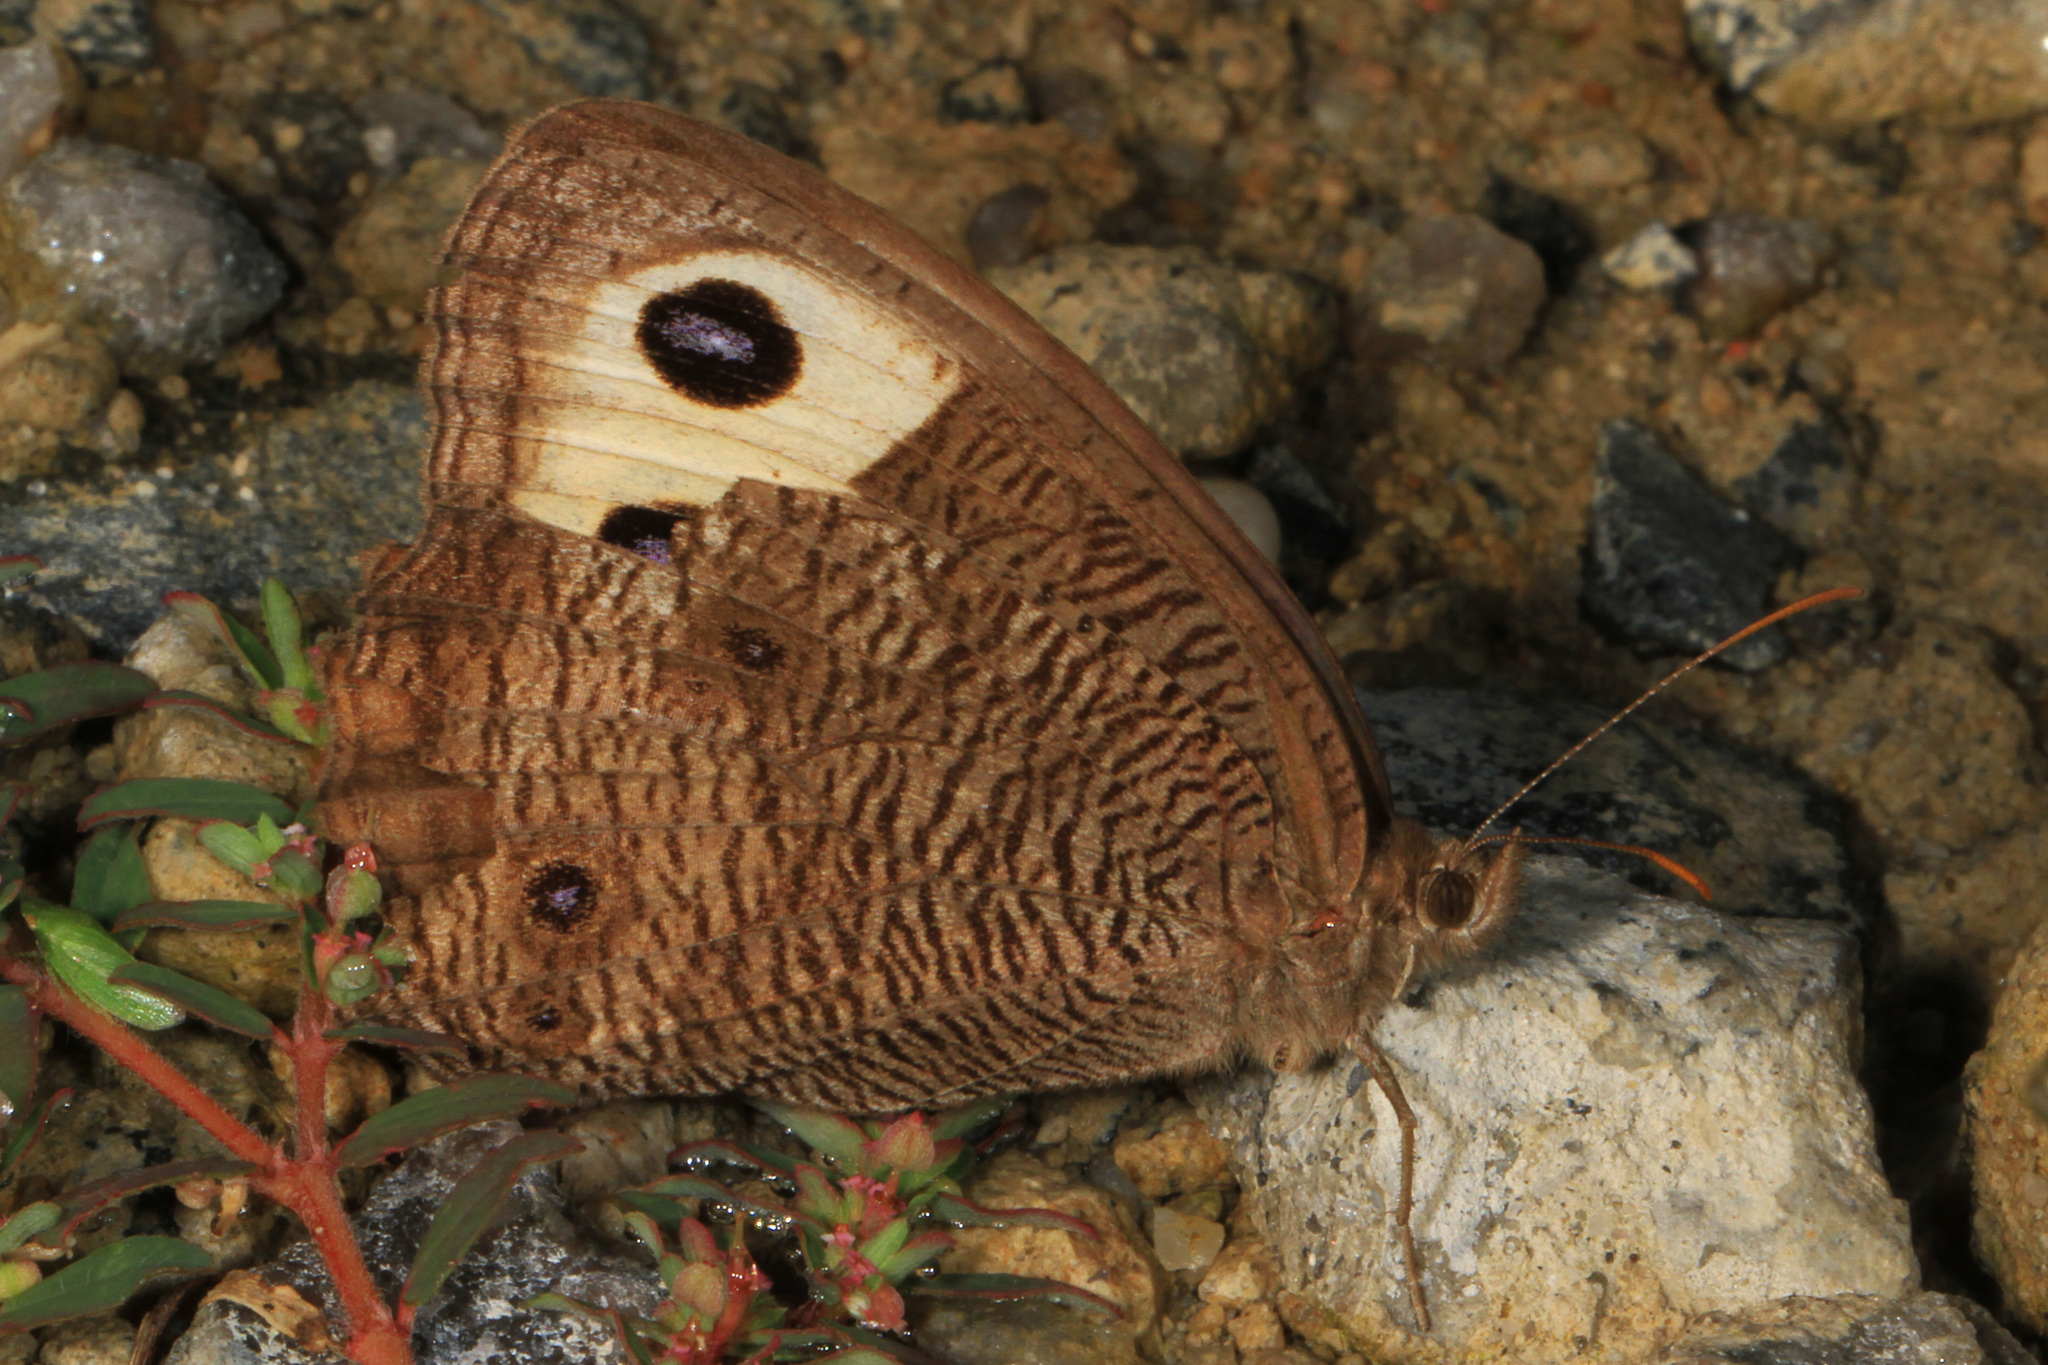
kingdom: Animalia
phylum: Arthropoda
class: Insecta
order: Lepidoptera
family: Nymphalidae
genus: Cercyonis
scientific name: Cercyonis pegala
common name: Common wood-nymph
